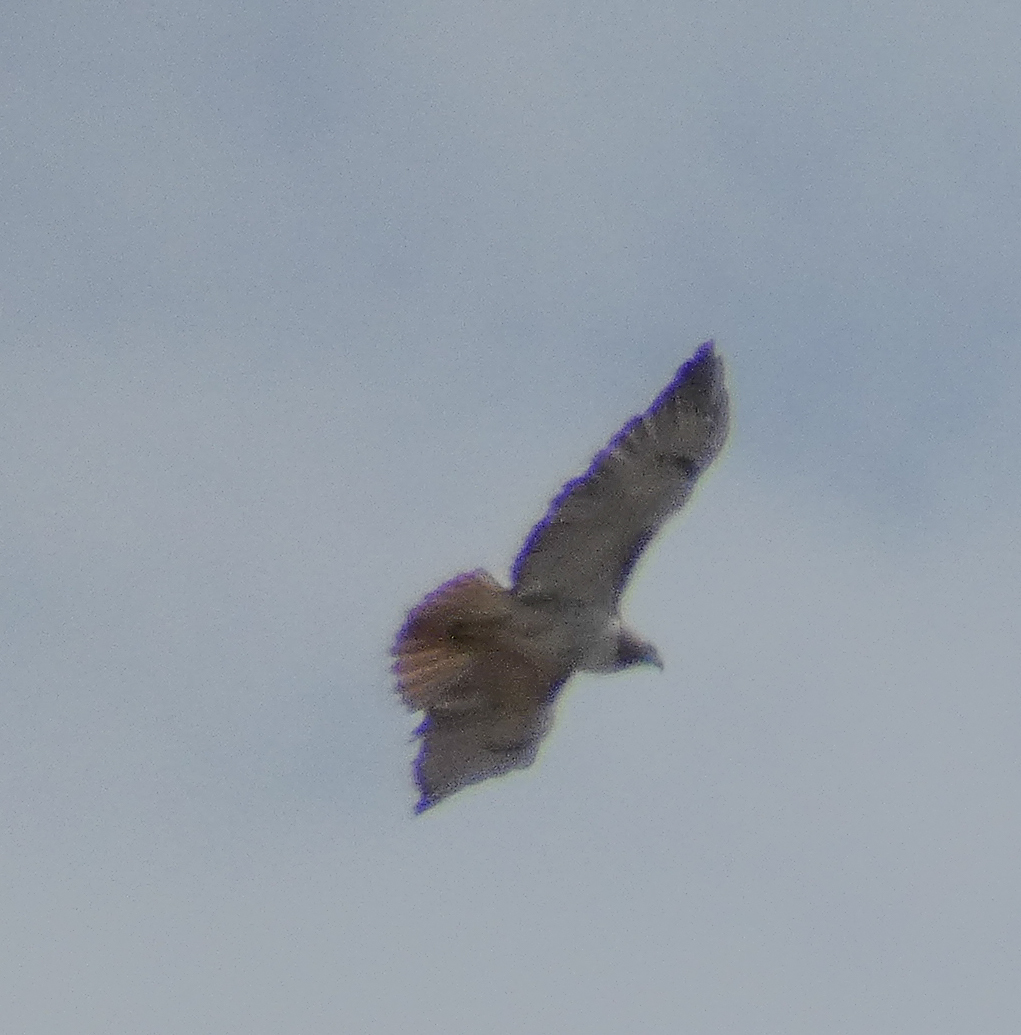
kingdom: Animalia
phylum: Chordata
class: Aves
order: Accipitriformes
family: Accipitridae
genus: Buteo
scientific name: Buteo jamaicensis
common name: Red-tailed hawk
